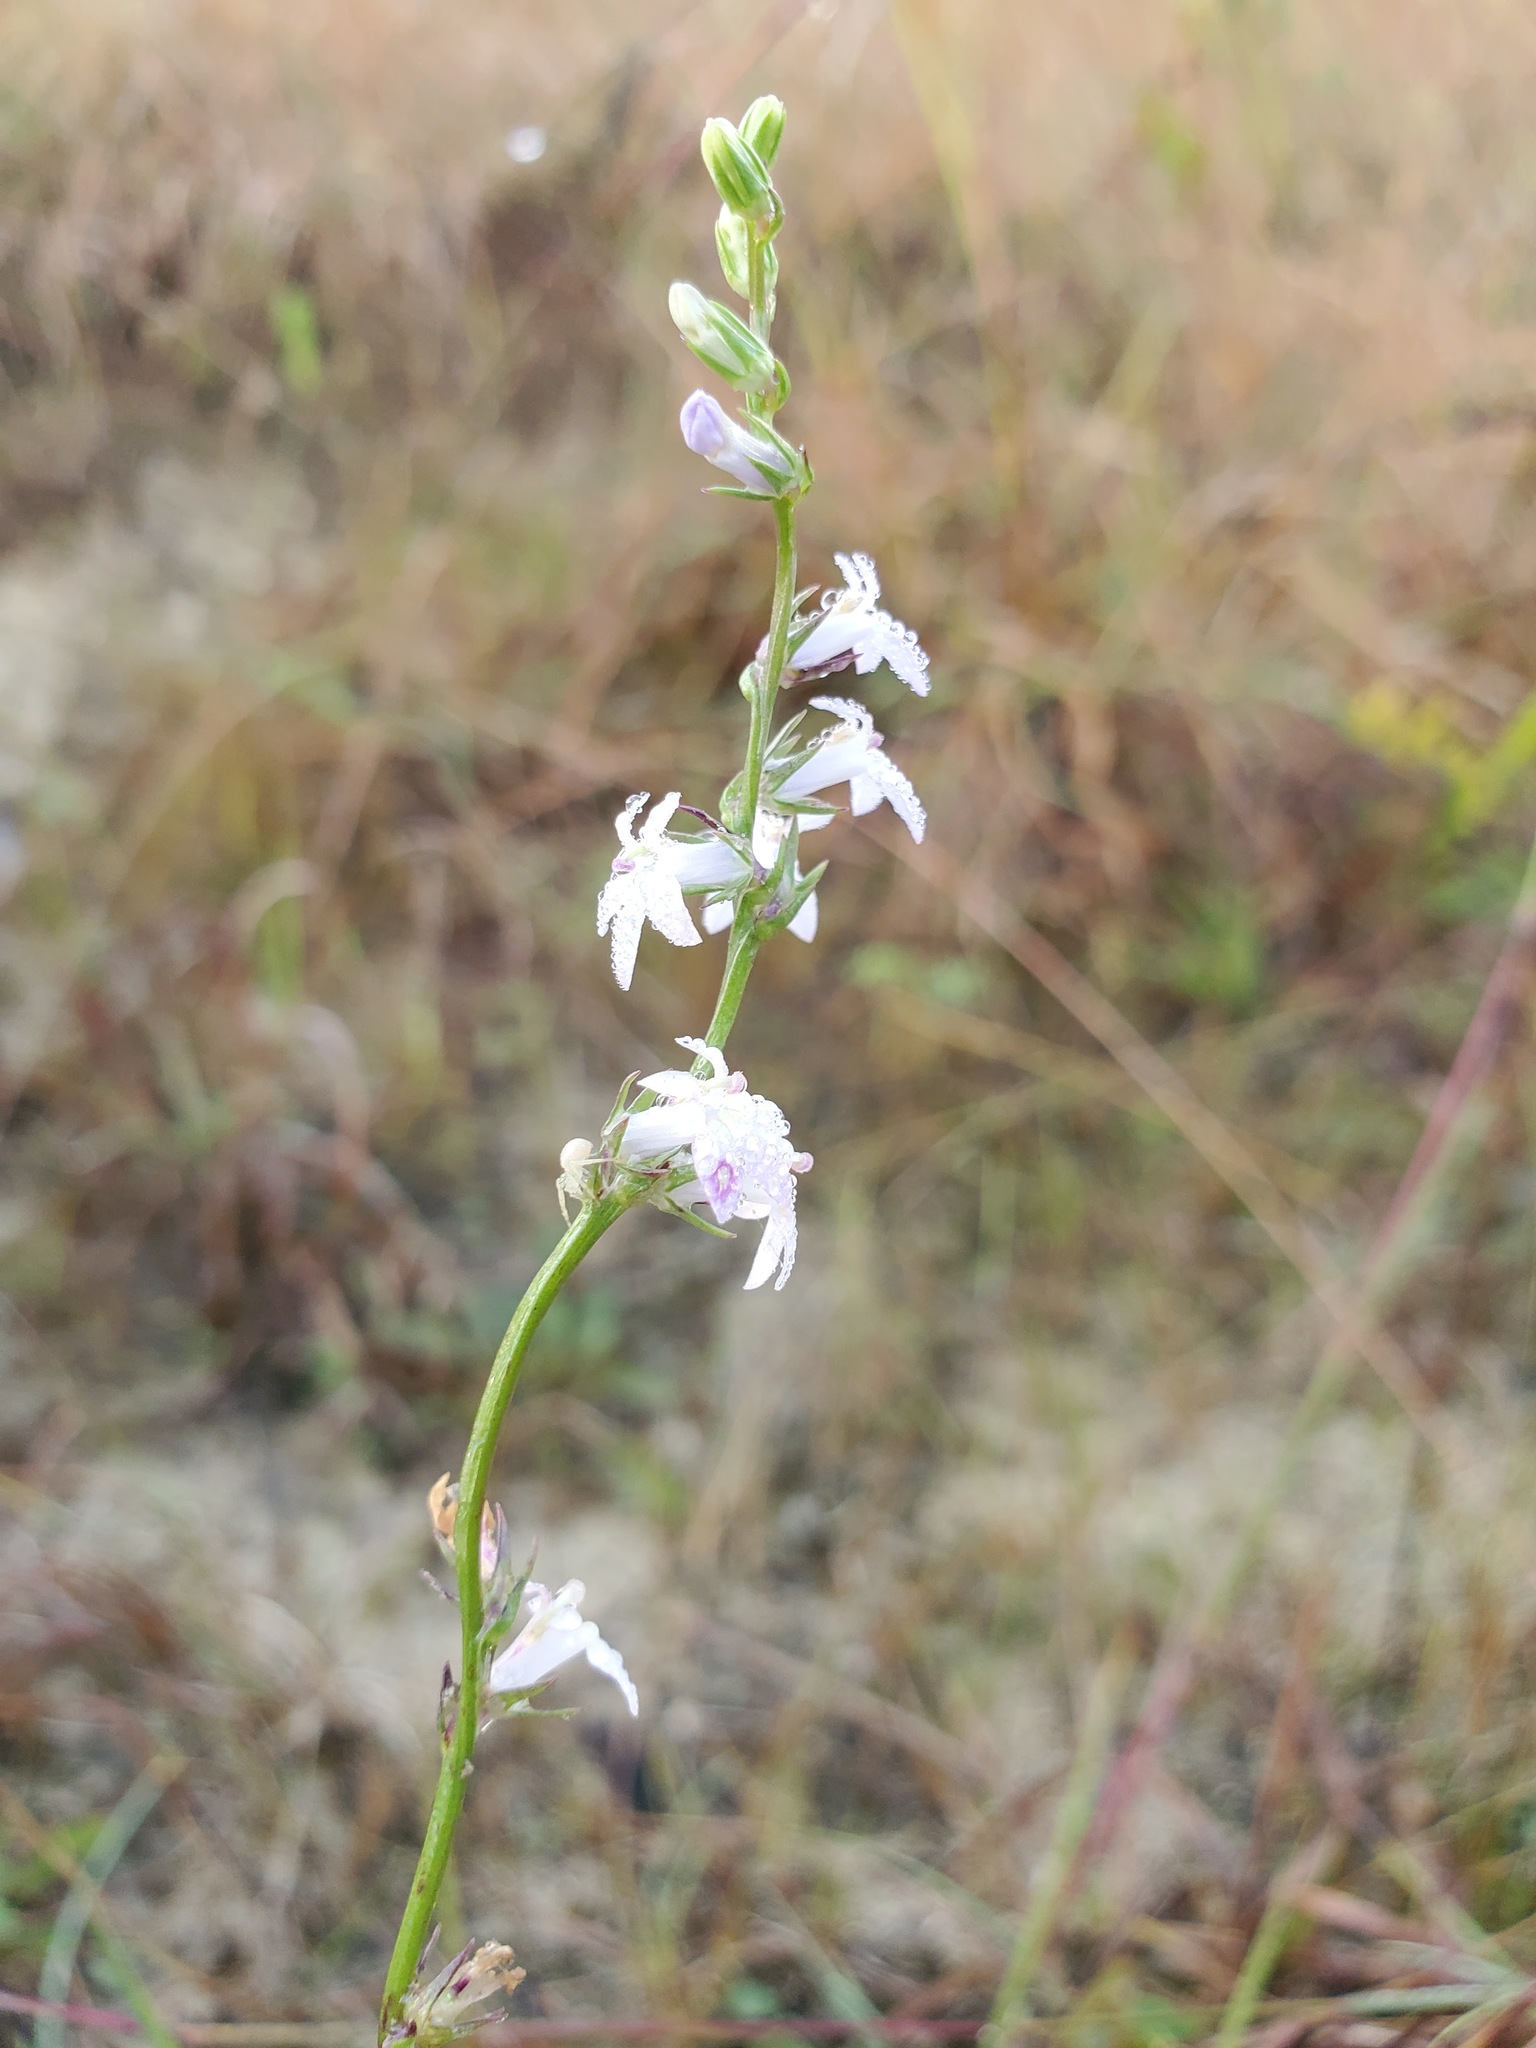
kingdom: Plantae
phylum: Tracheophyta
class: Magnoliopsida
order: Asterales
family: Campanulaceae
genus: Lobelia
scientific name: Lobelia spicata
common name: Pale-spike lobelia
